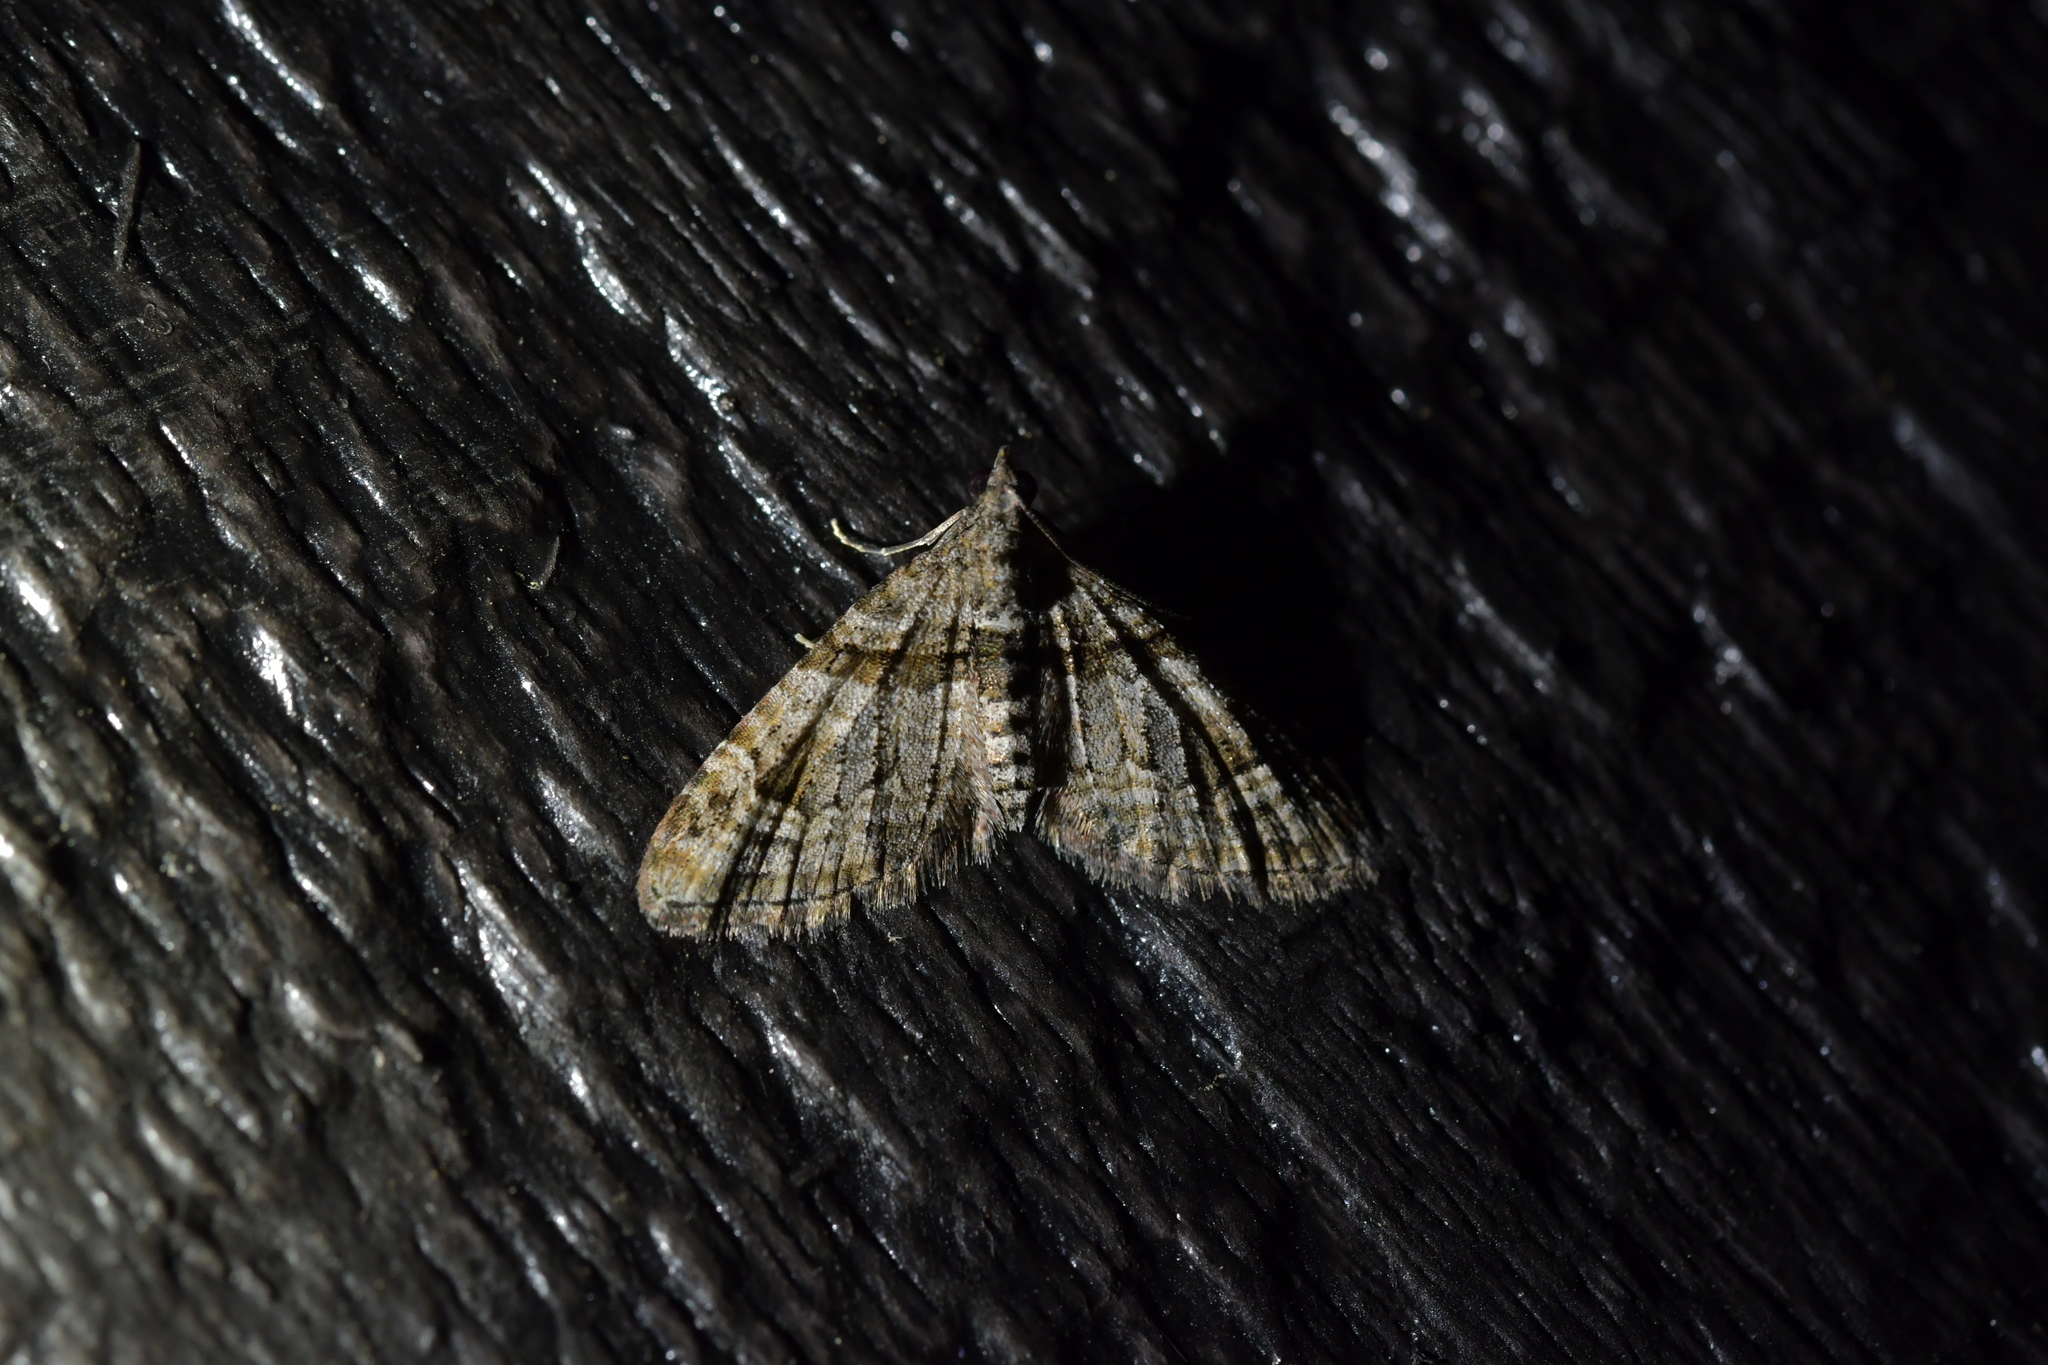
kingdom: Animalia
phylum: Arthropoda
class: Insecta
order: Lepidoptera
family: Geometridae
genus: Phrissogonus
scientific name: Phrissogonus laticostata
